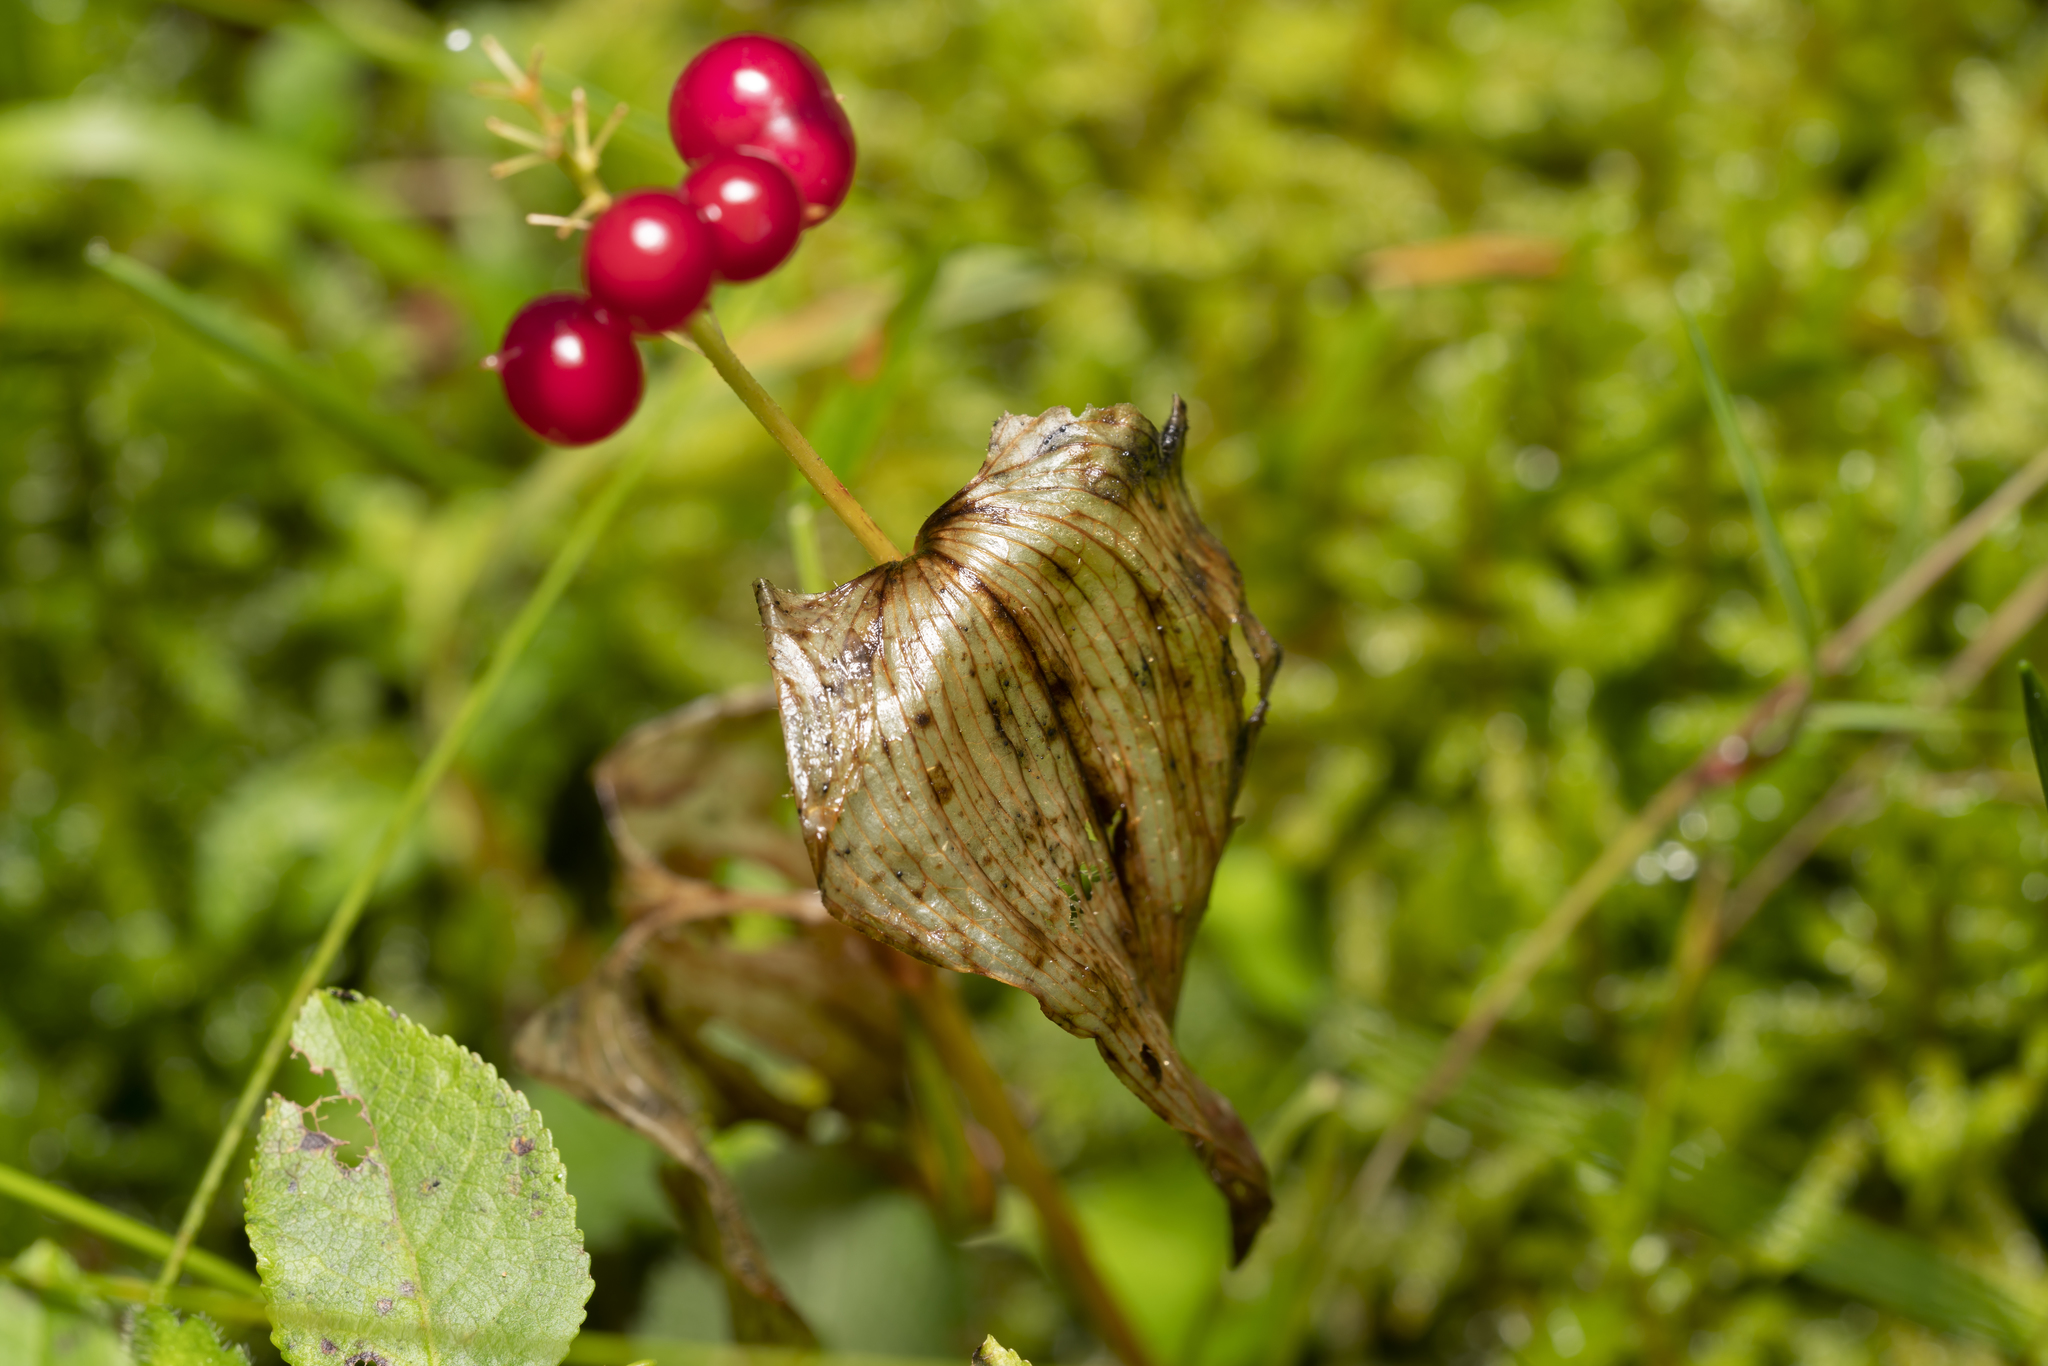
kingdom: Plantae
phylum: Tracheophyta
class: Liliopsida
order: Asparagales
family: Asparagaceae
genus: Maianthemum
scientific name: Maianthemum bifolium
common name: May lily
